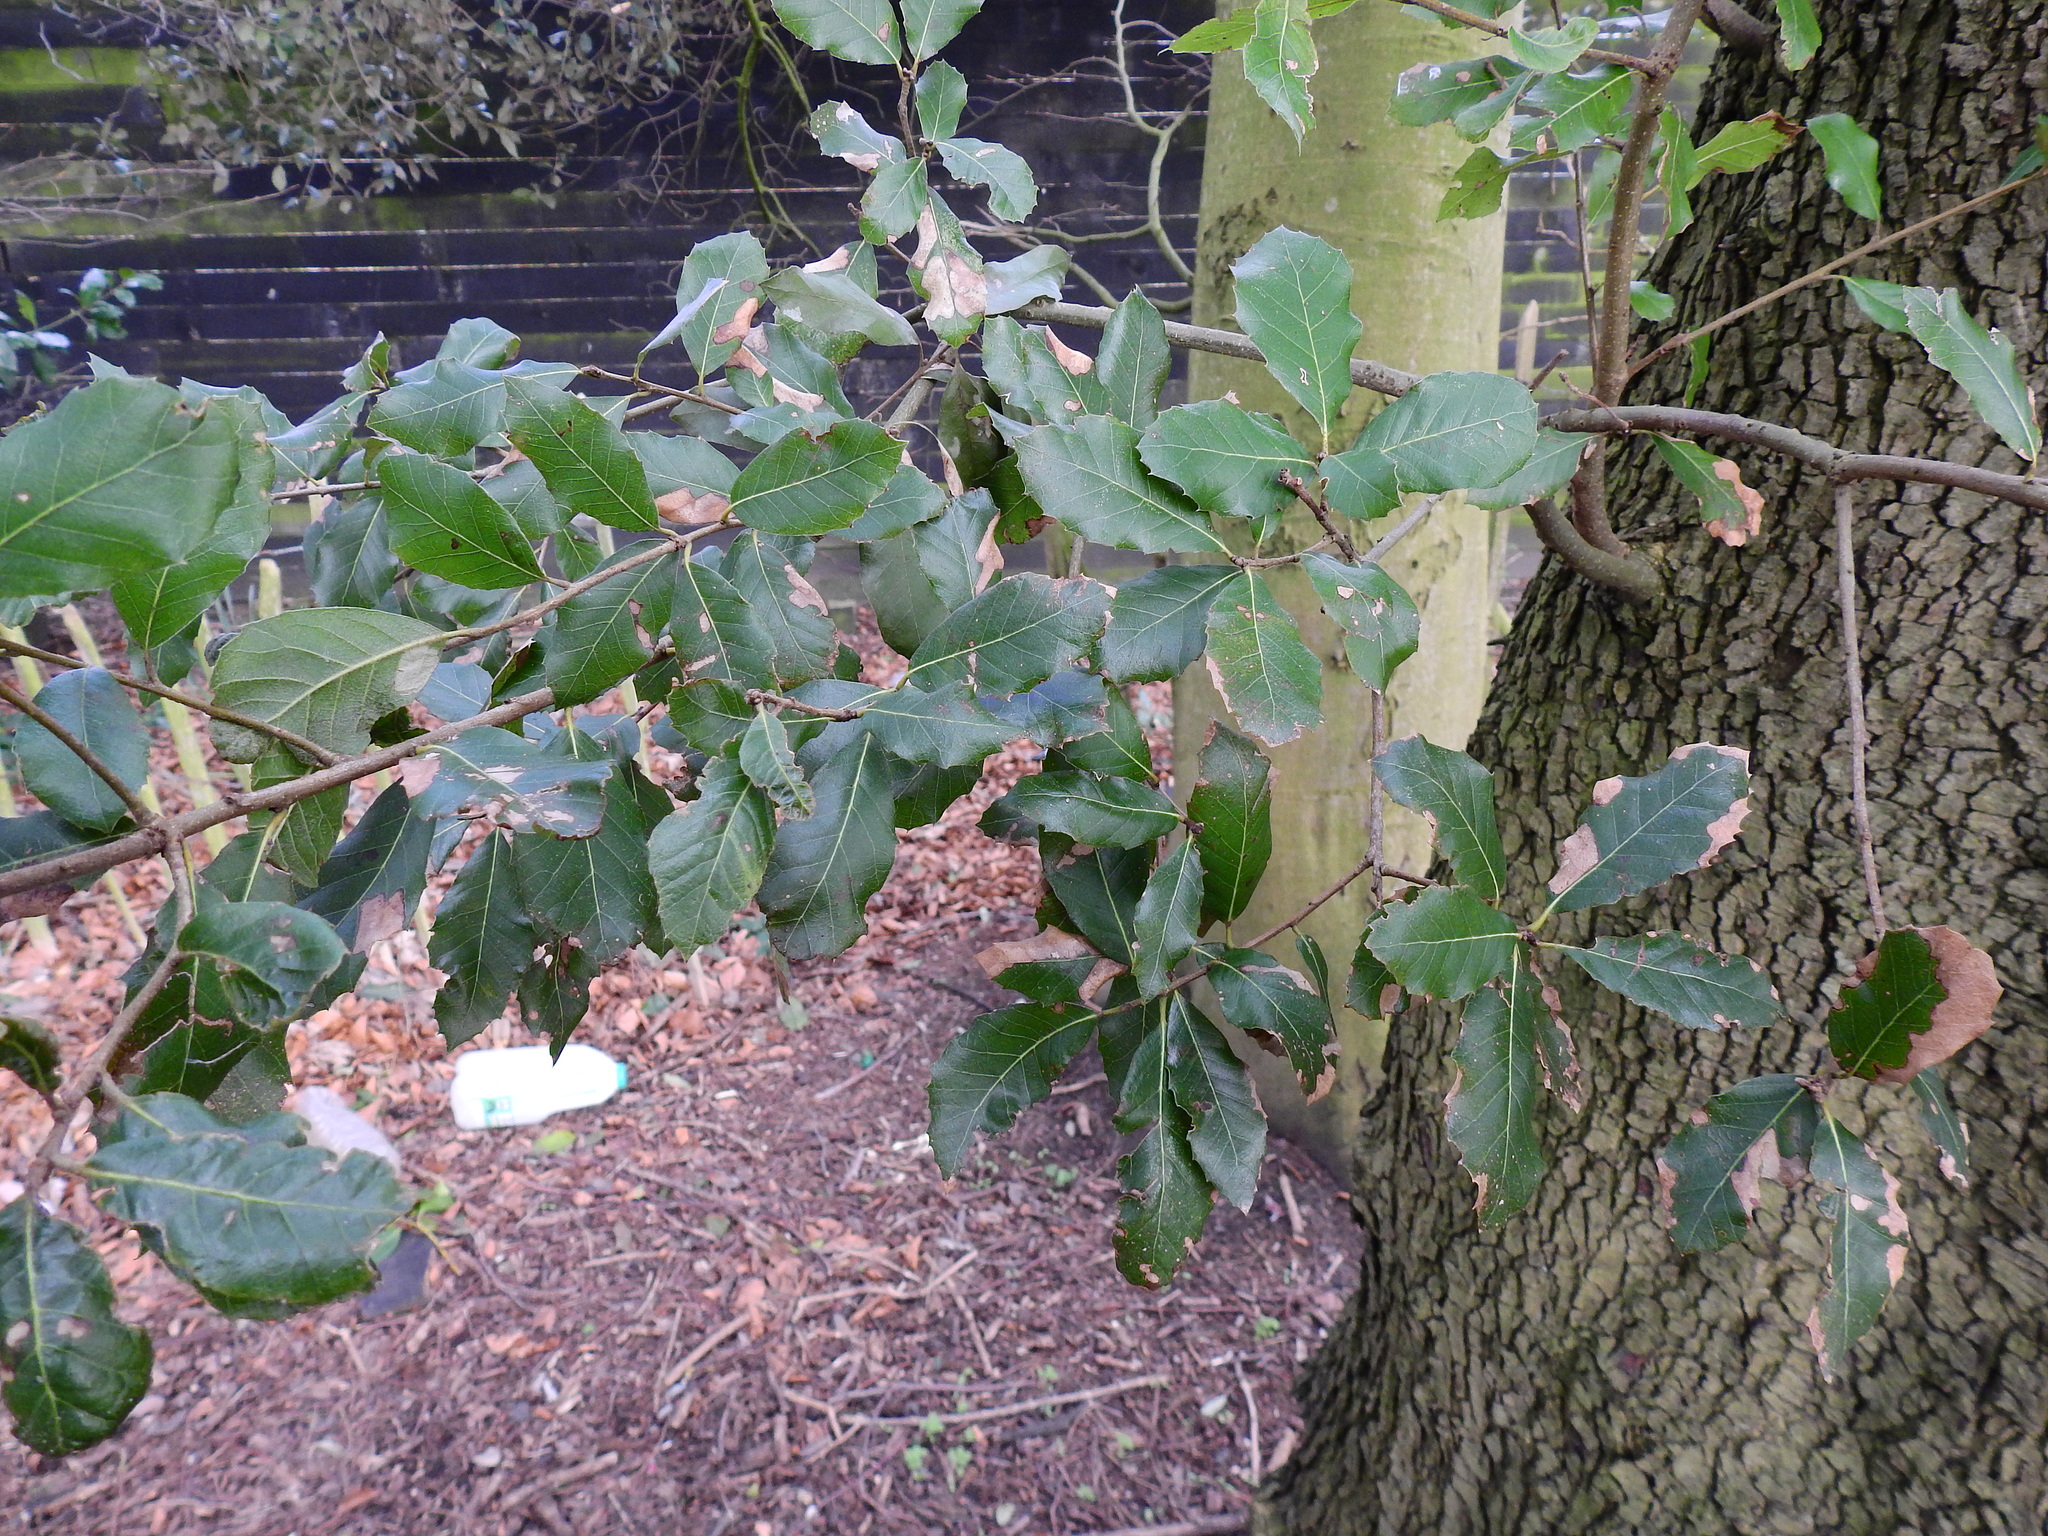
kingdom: Plantae
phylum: Tracheophyta
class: Magnoliopsida
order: Fagales
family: Fagaceae
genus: Quercus
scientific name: Quercus ilex
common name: Evergreen oak
